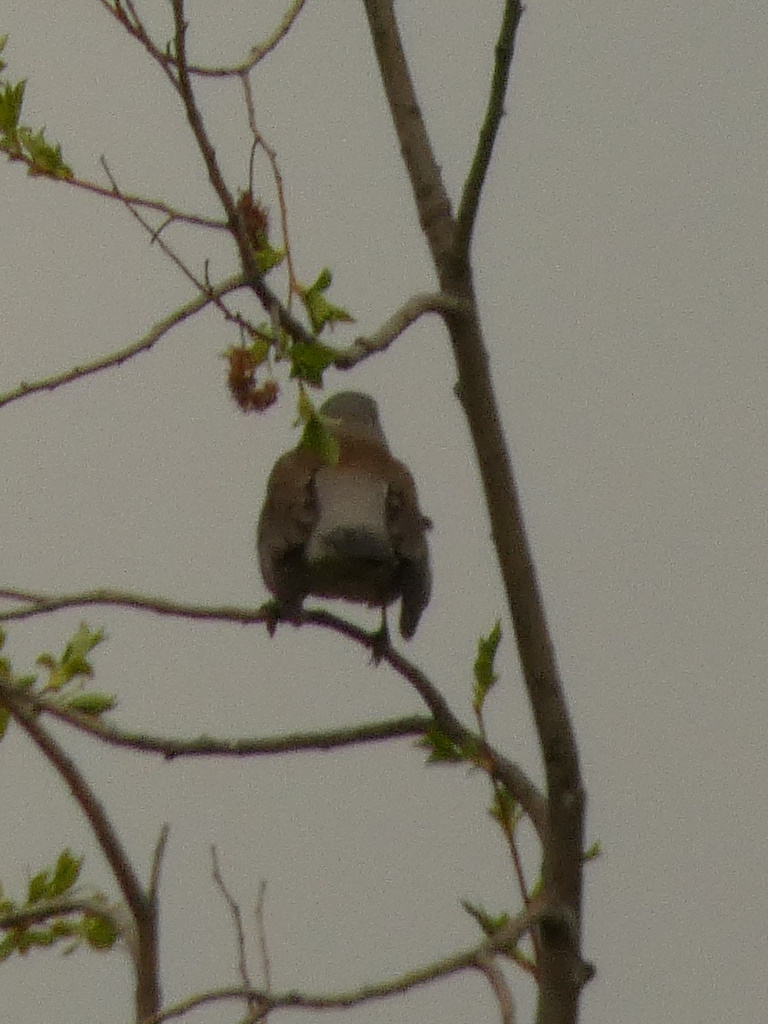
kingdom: Animalia
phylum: Chordata
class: Aves
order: Passeriformes
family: Turdidae
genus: Turdus
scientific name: Turdus pilaris
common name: Fieldfare
